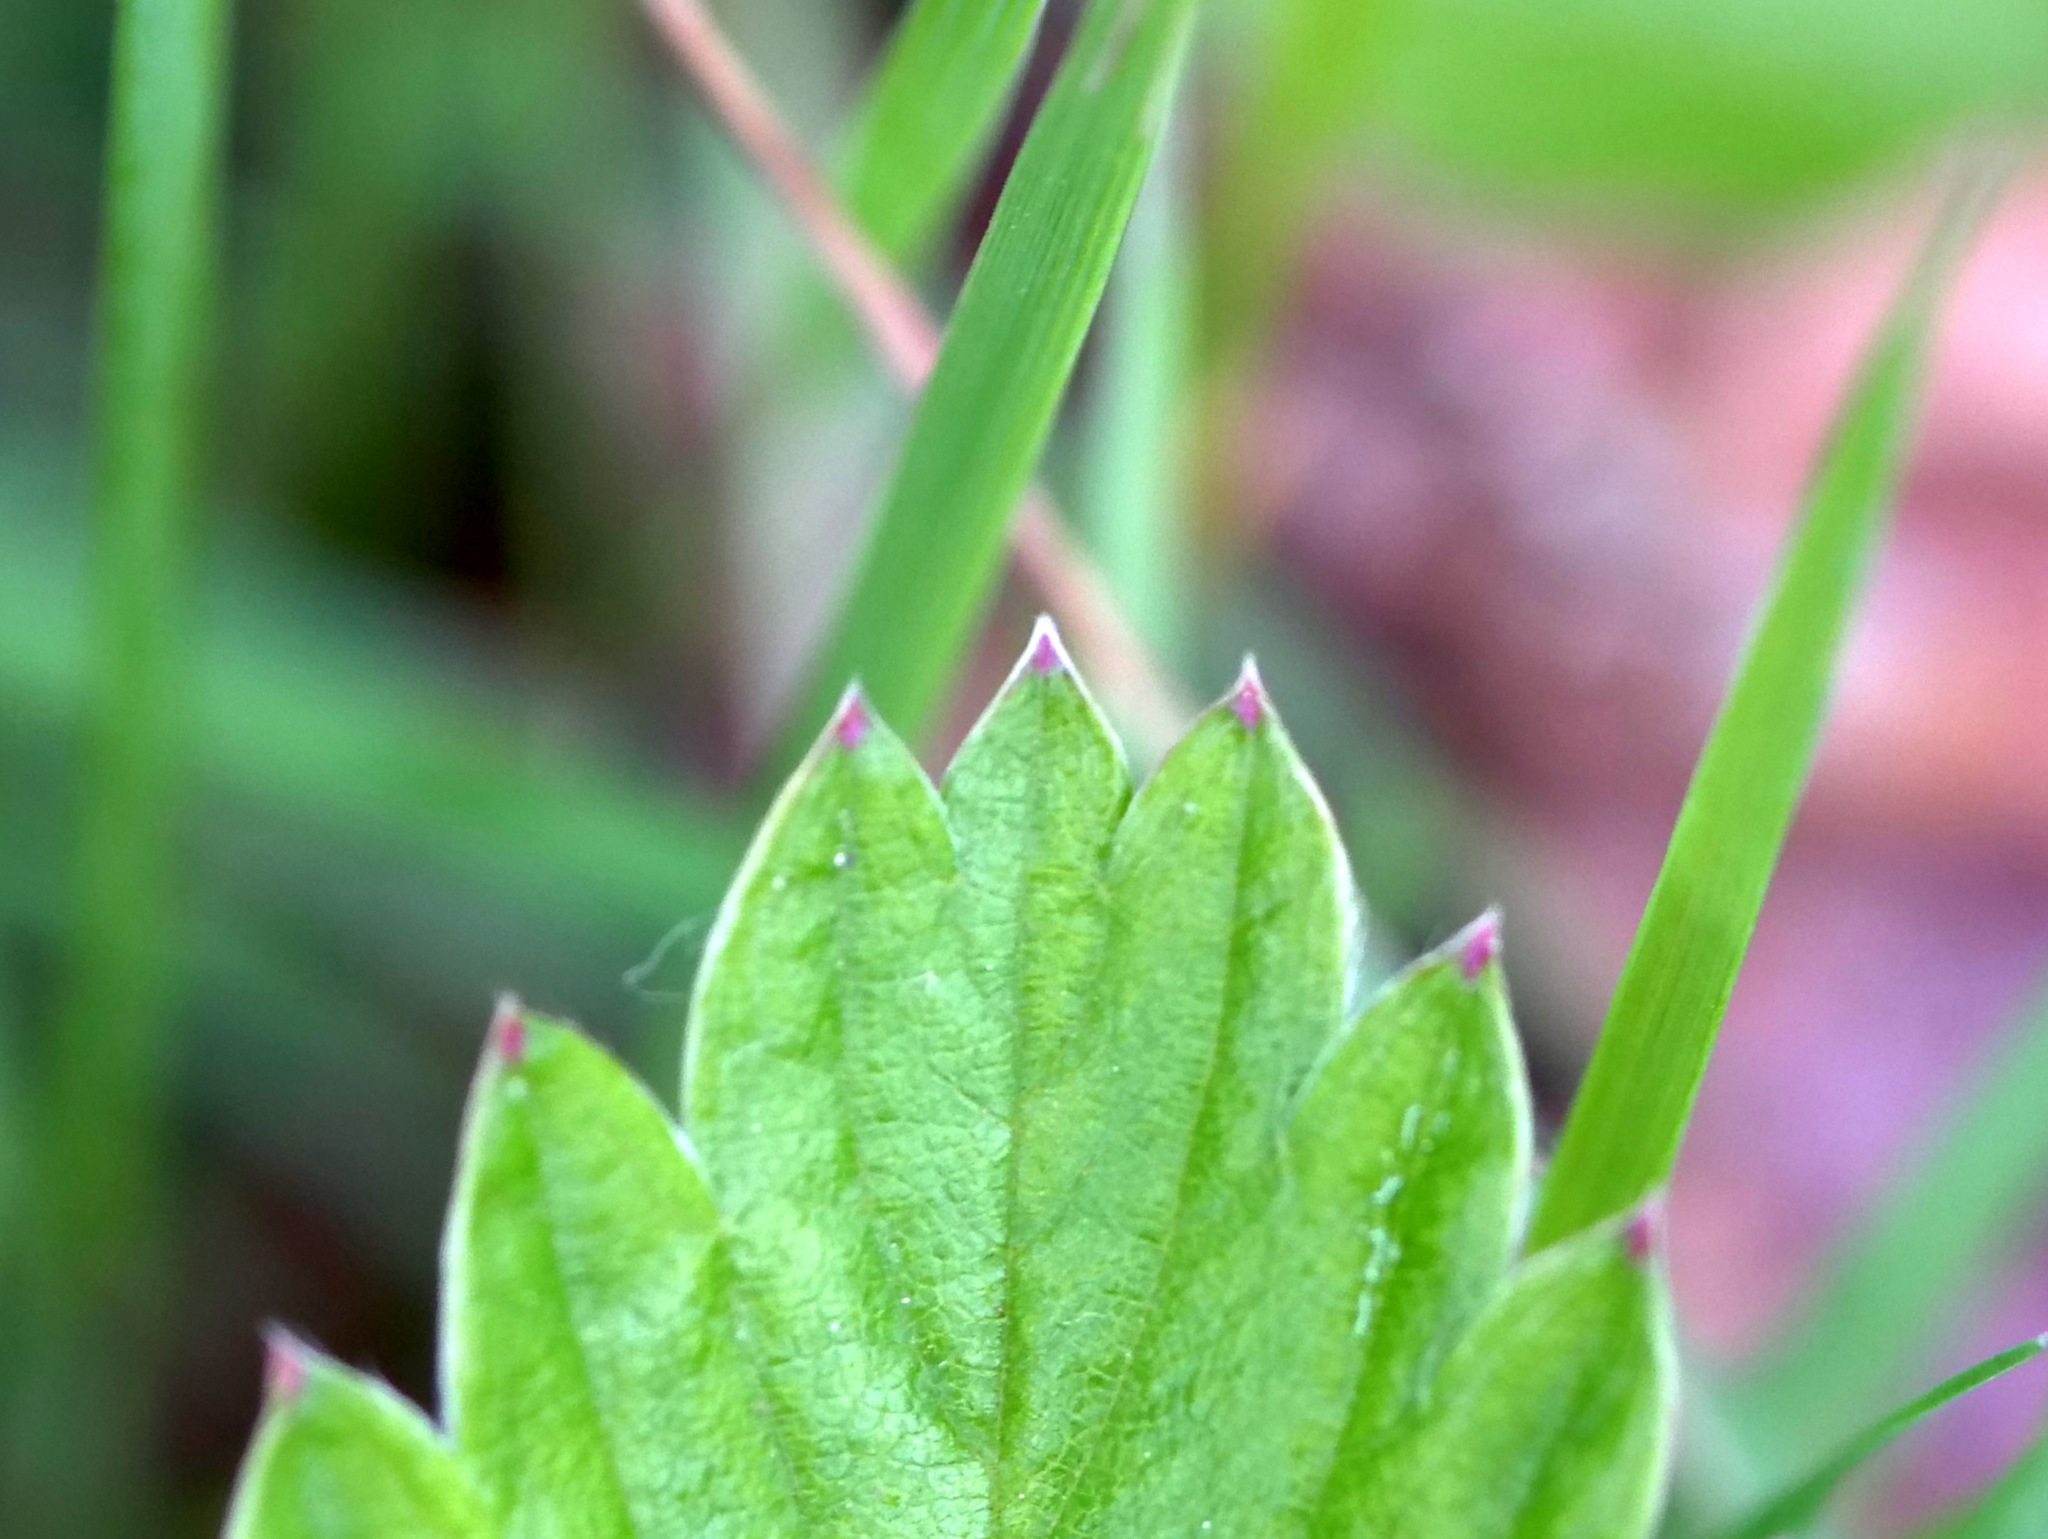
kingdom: Plantae
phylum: Tracheophyta
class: Magnoliopsida
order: Rosales
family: Rosaceae
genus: Fragaria
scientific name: Fragaria vesca
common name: Wild strawberry
